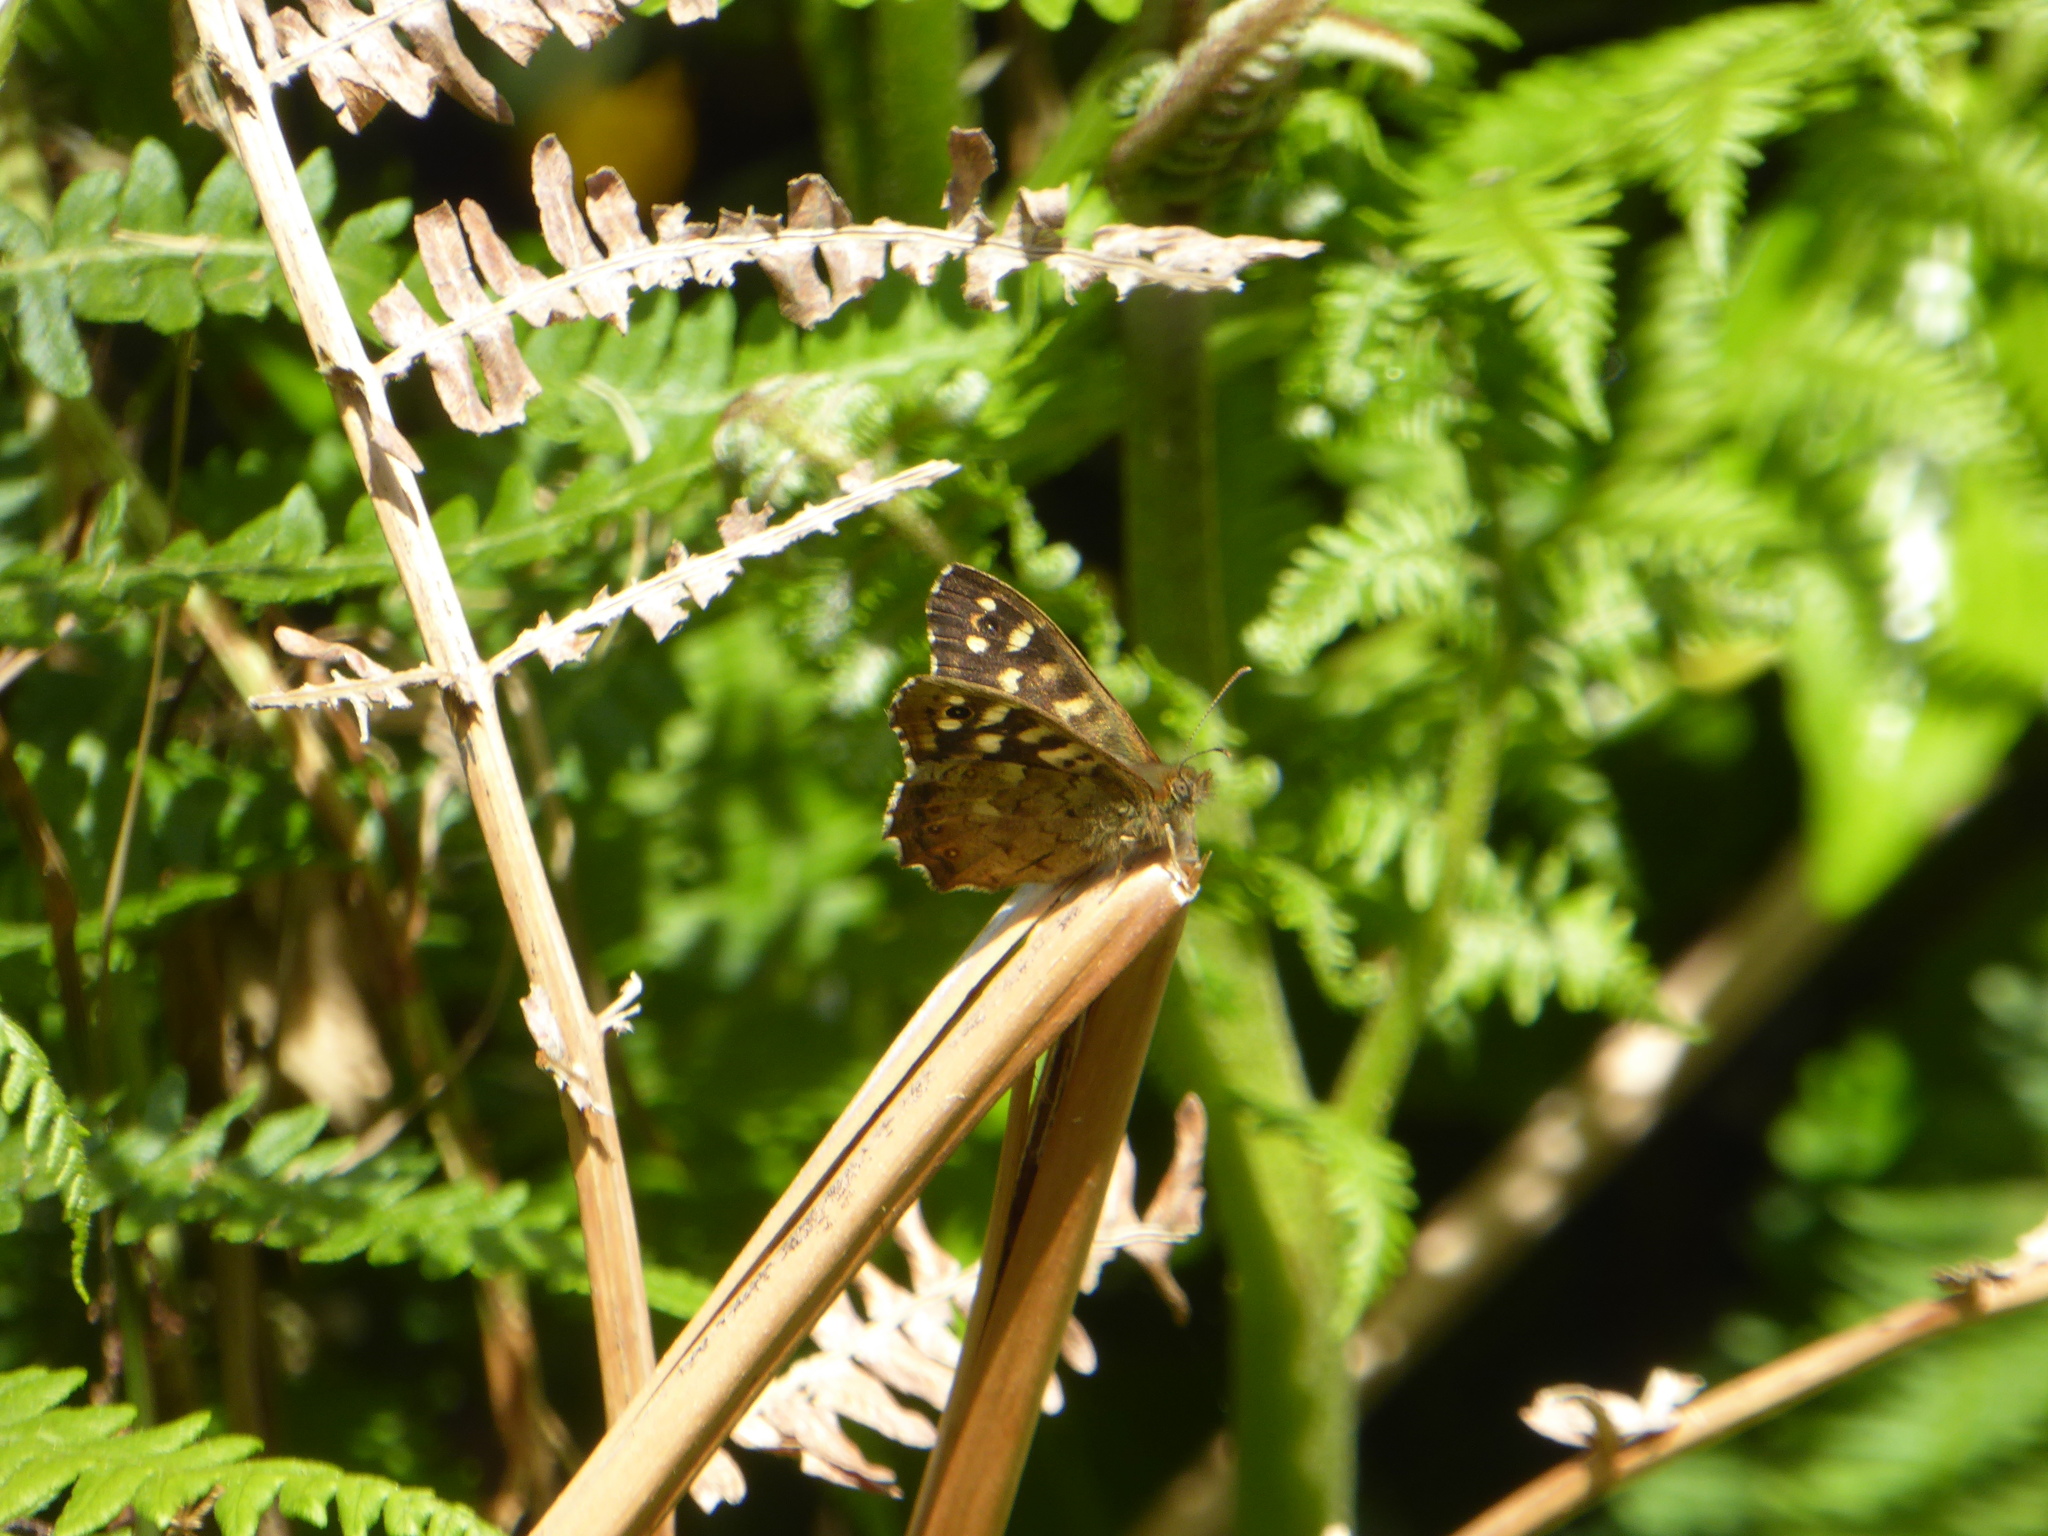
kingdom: Animalia
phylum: Arthropoda
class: Insecta
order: Lepidoptera
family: Nymphalidae
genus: Pararge
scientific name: Pararge aegeria
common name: Speckled wood
